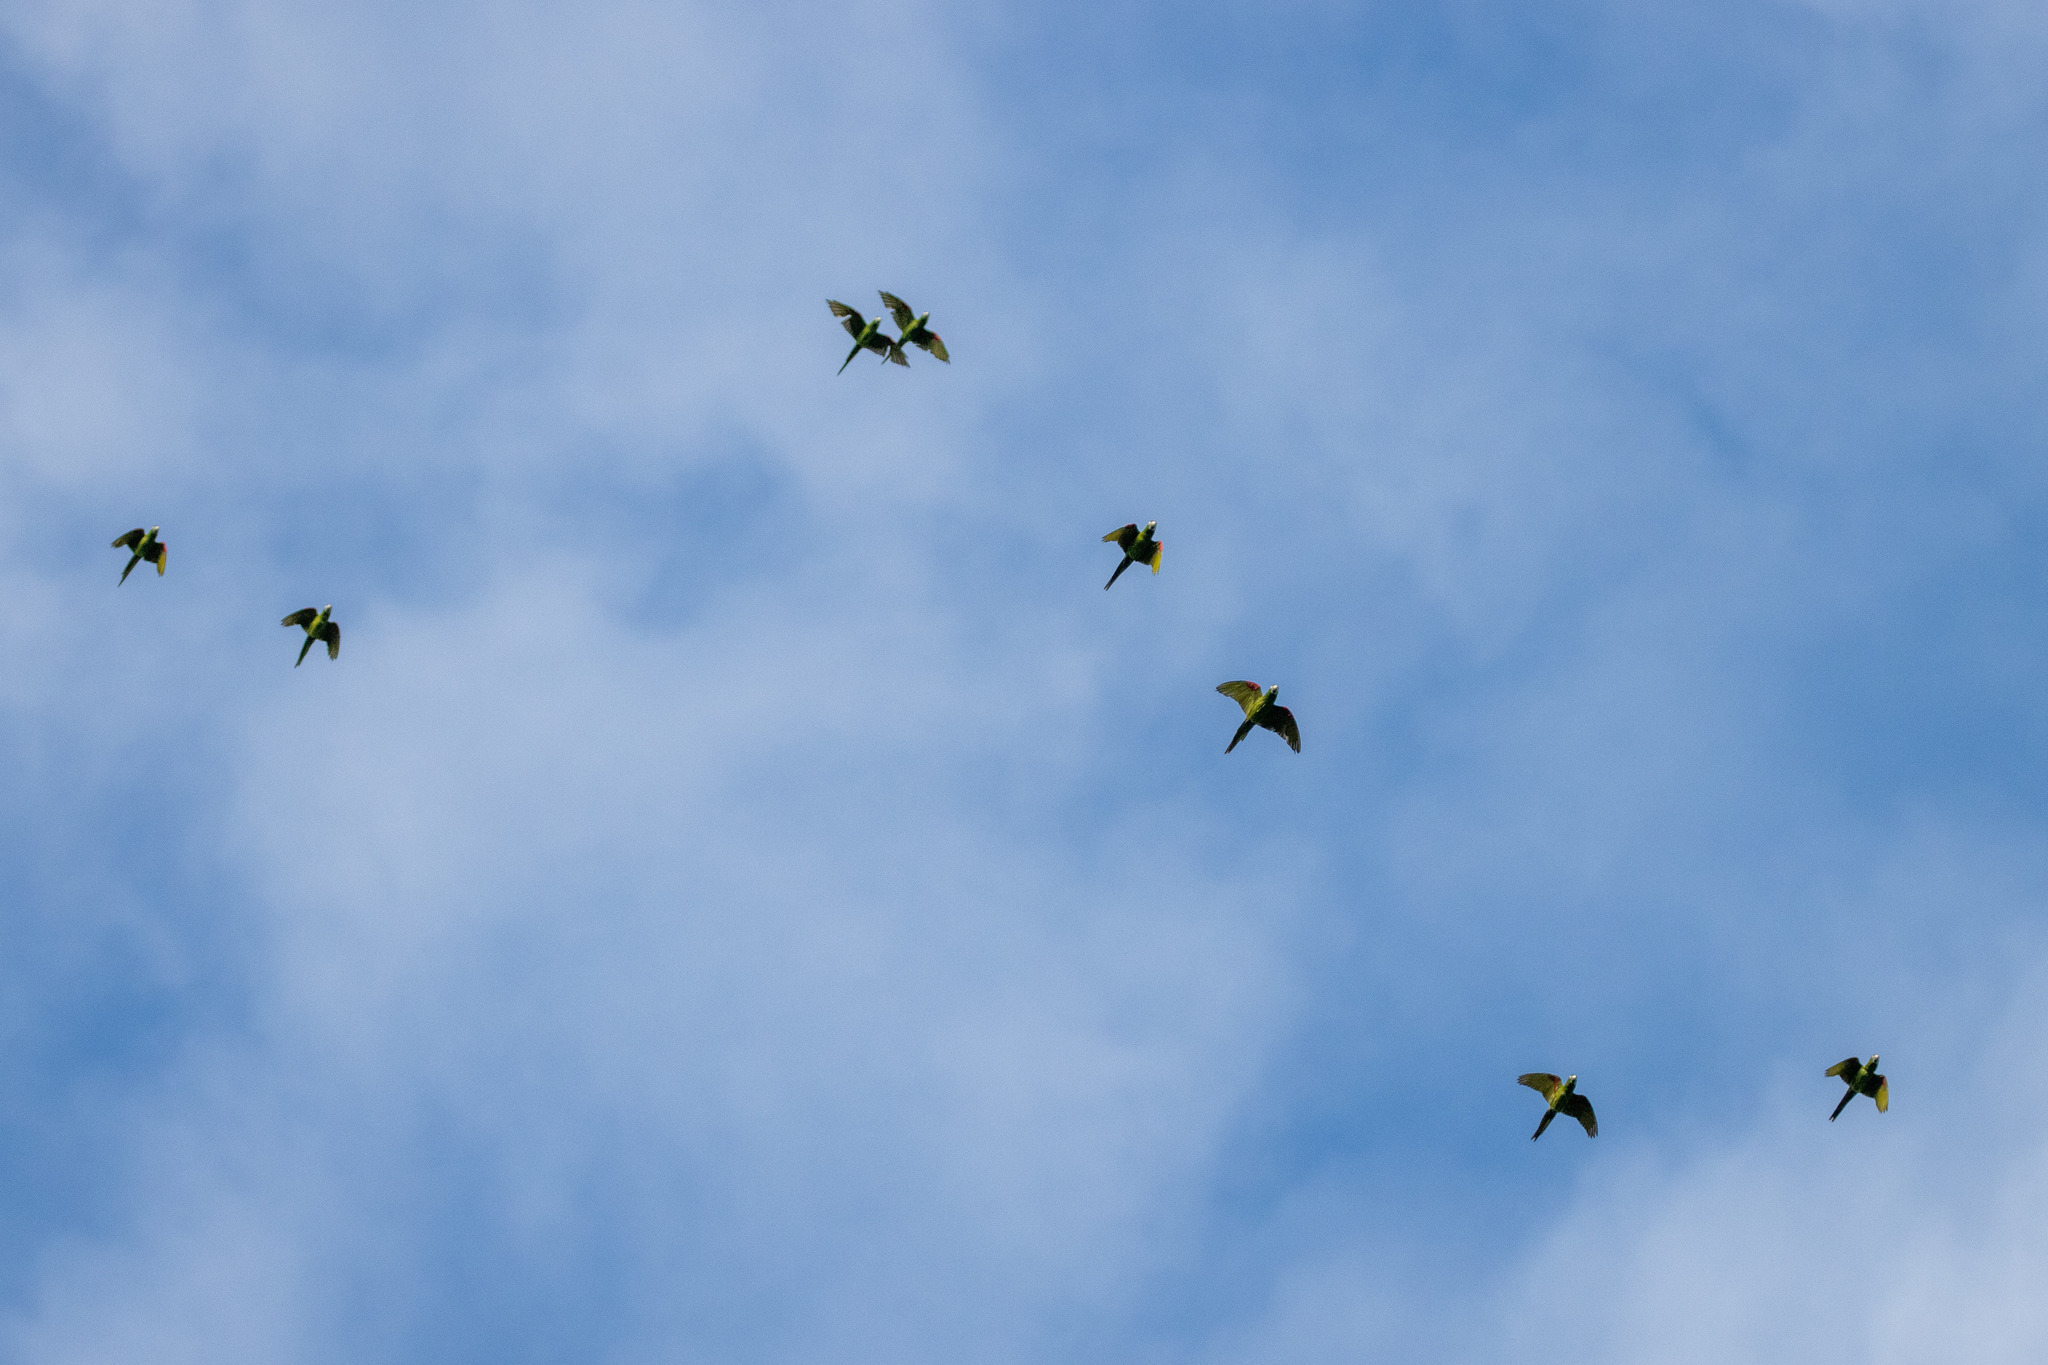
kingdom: Animalia
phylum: Chordata
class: Aves
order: Psittaciformes
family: Psittacidae
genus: Diopsittaca
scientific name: Diopsittaca nobilis
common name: Red-shouldered macaw
